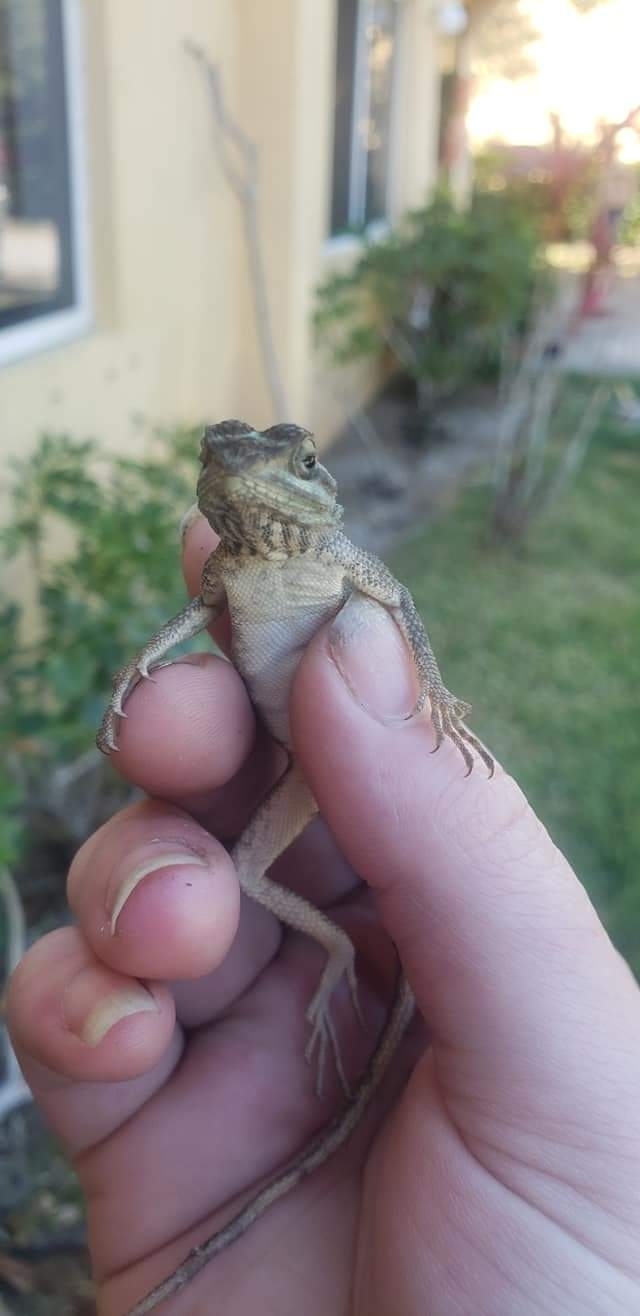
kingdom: Animalia
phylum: Chordata
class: Squamata
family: Agamidae
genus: Agama
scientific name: Agama picticauda
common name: Red-headed agama
